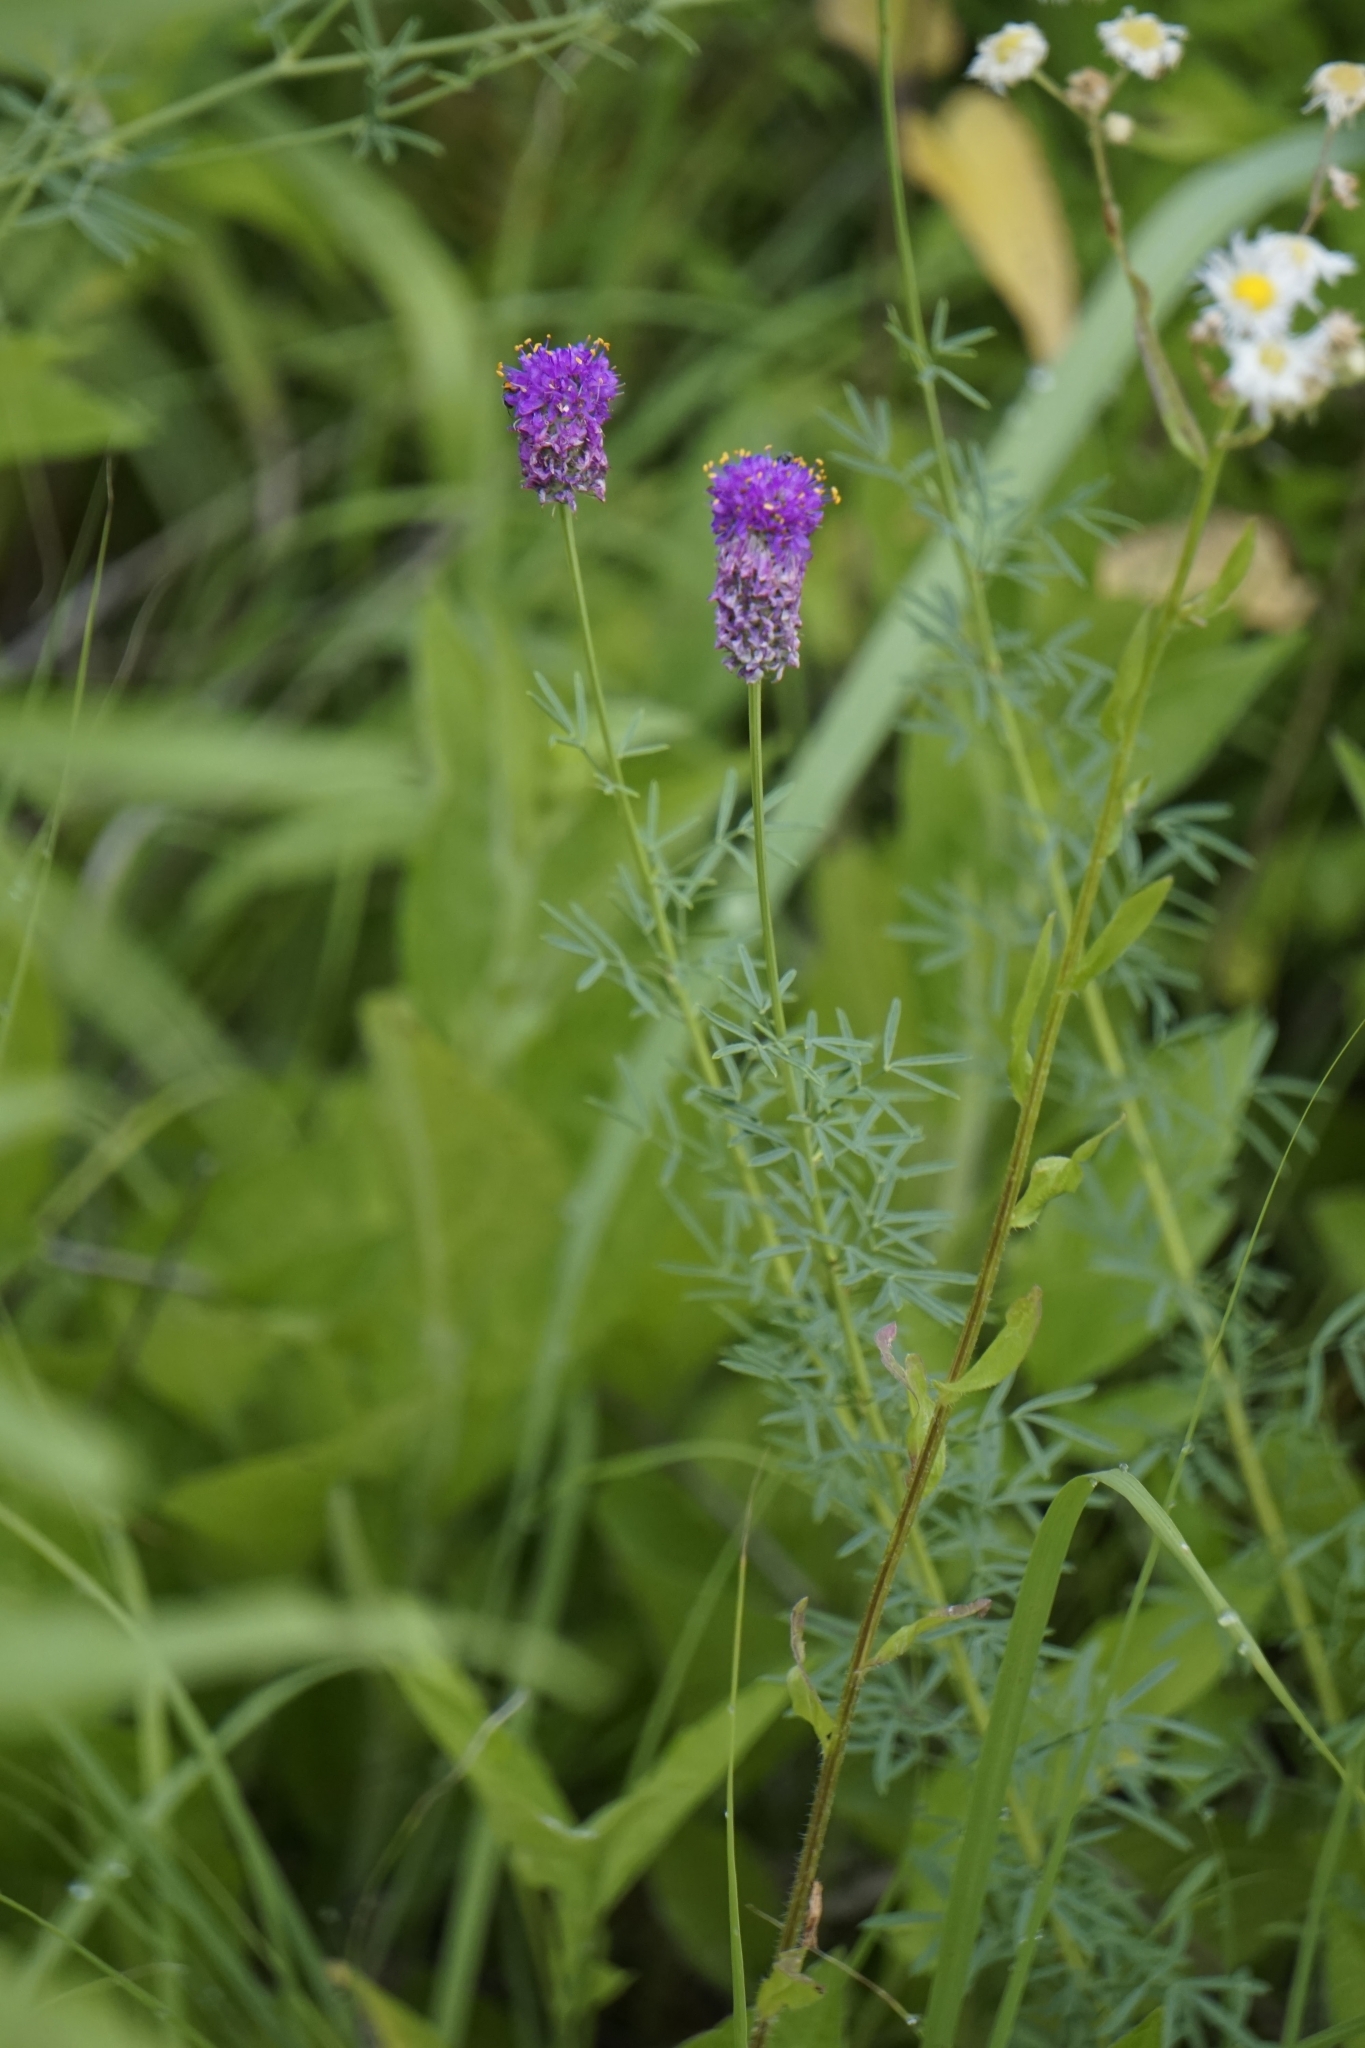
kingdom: Plantae
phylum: Tracheophyta
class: Magnoliopsida
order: Fabales
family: Fabaceae
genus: Dalea
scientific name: Dalea purpurea
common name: Purple prairie-clover
